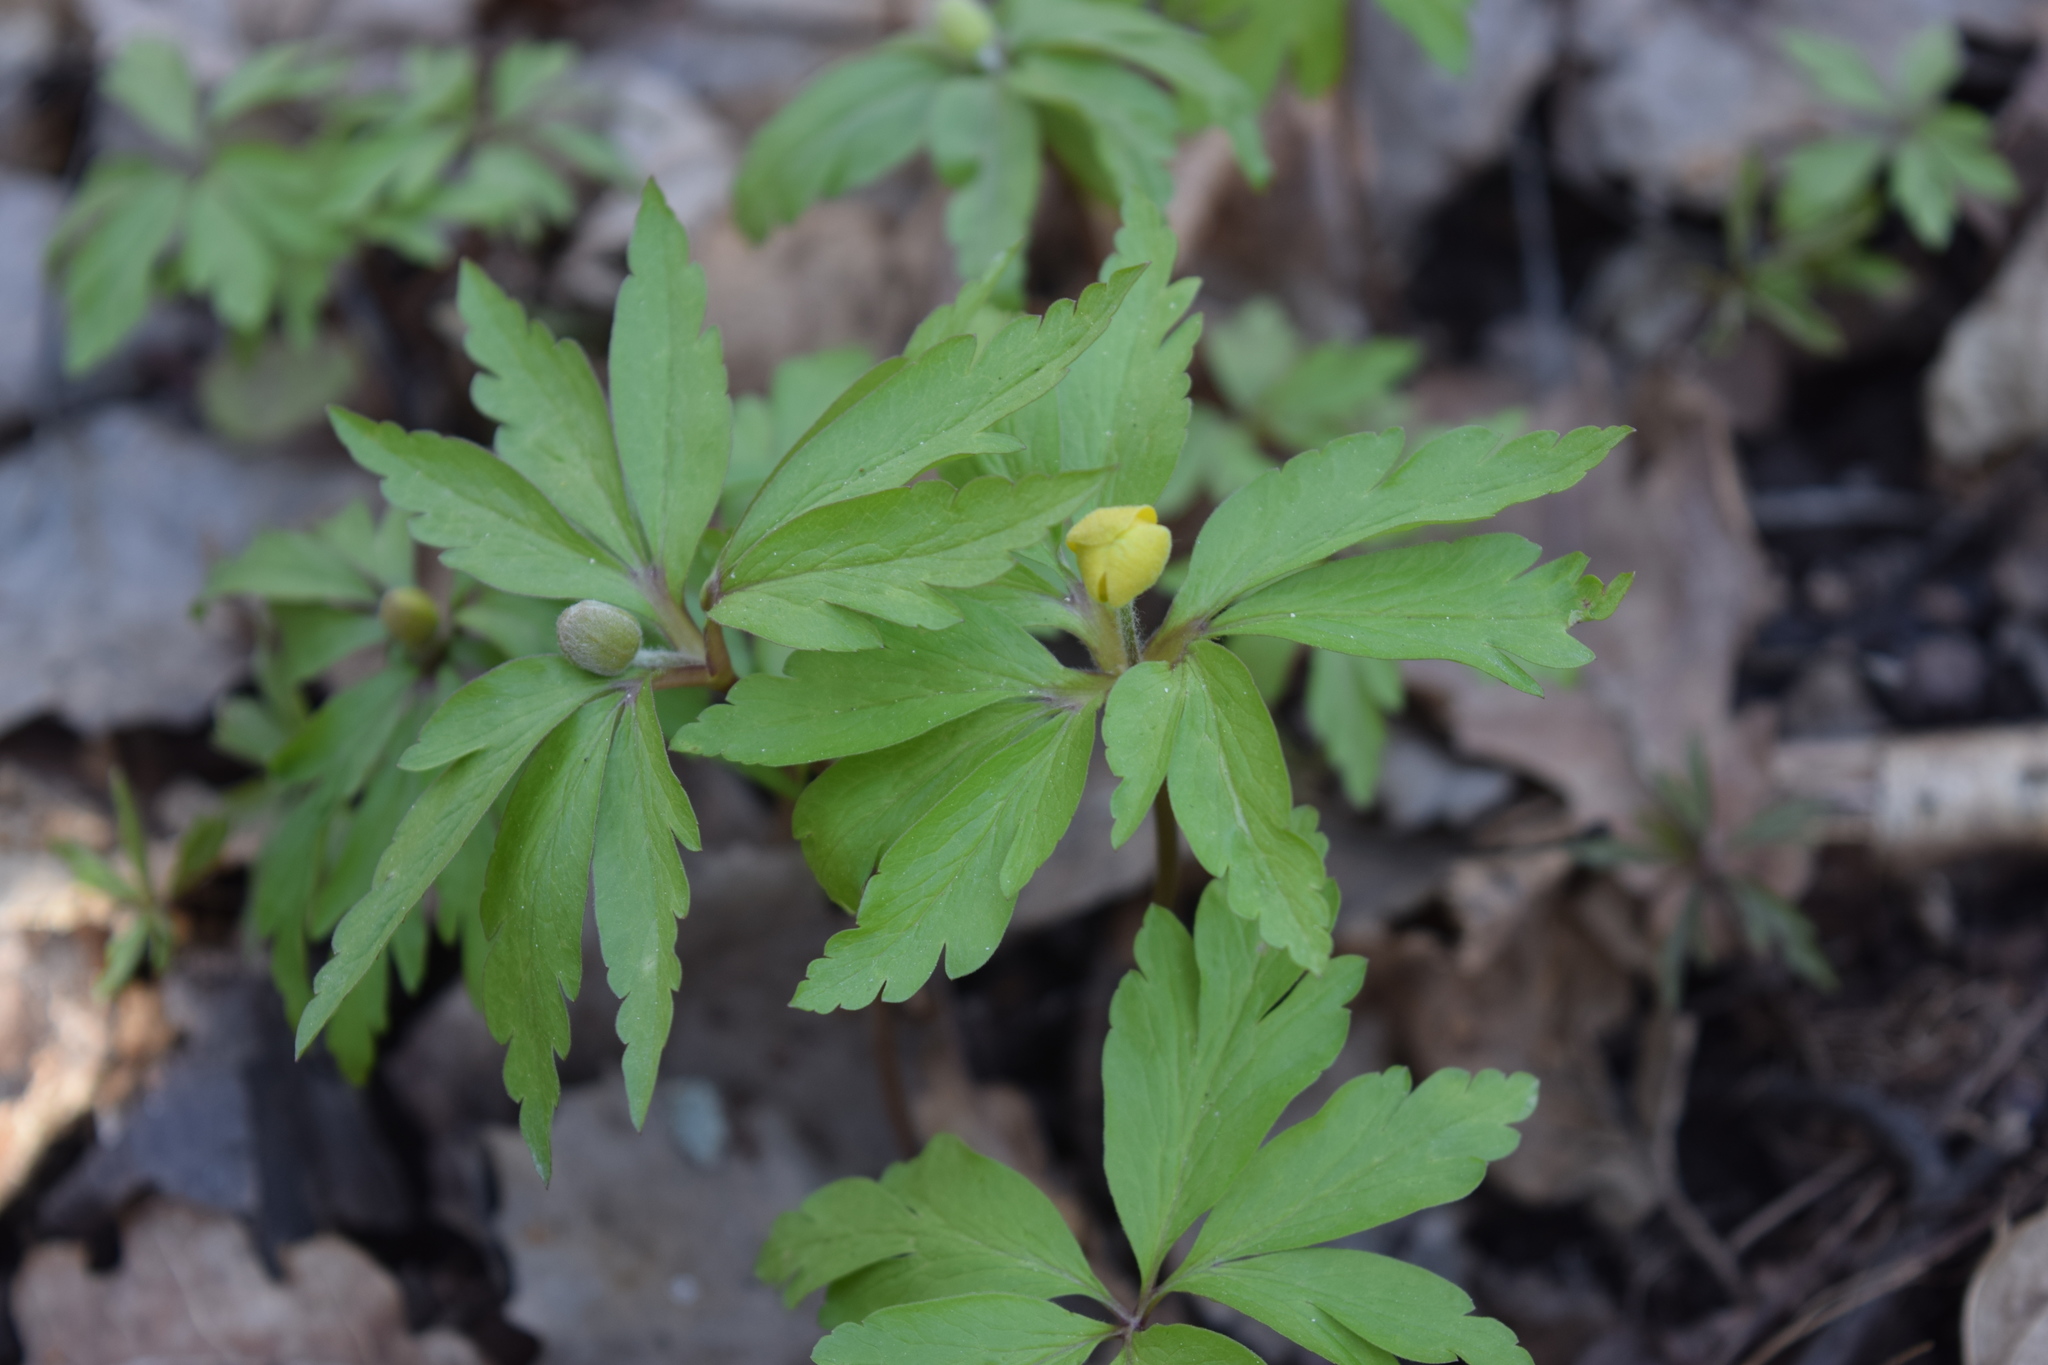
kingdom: Plantae
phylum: Tracheophyta
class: Magnoliopsida
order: Ranunculales
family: Ranunculaceae
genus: Anemone
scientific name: Anemone ranunculoides
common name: Yellow anemone
